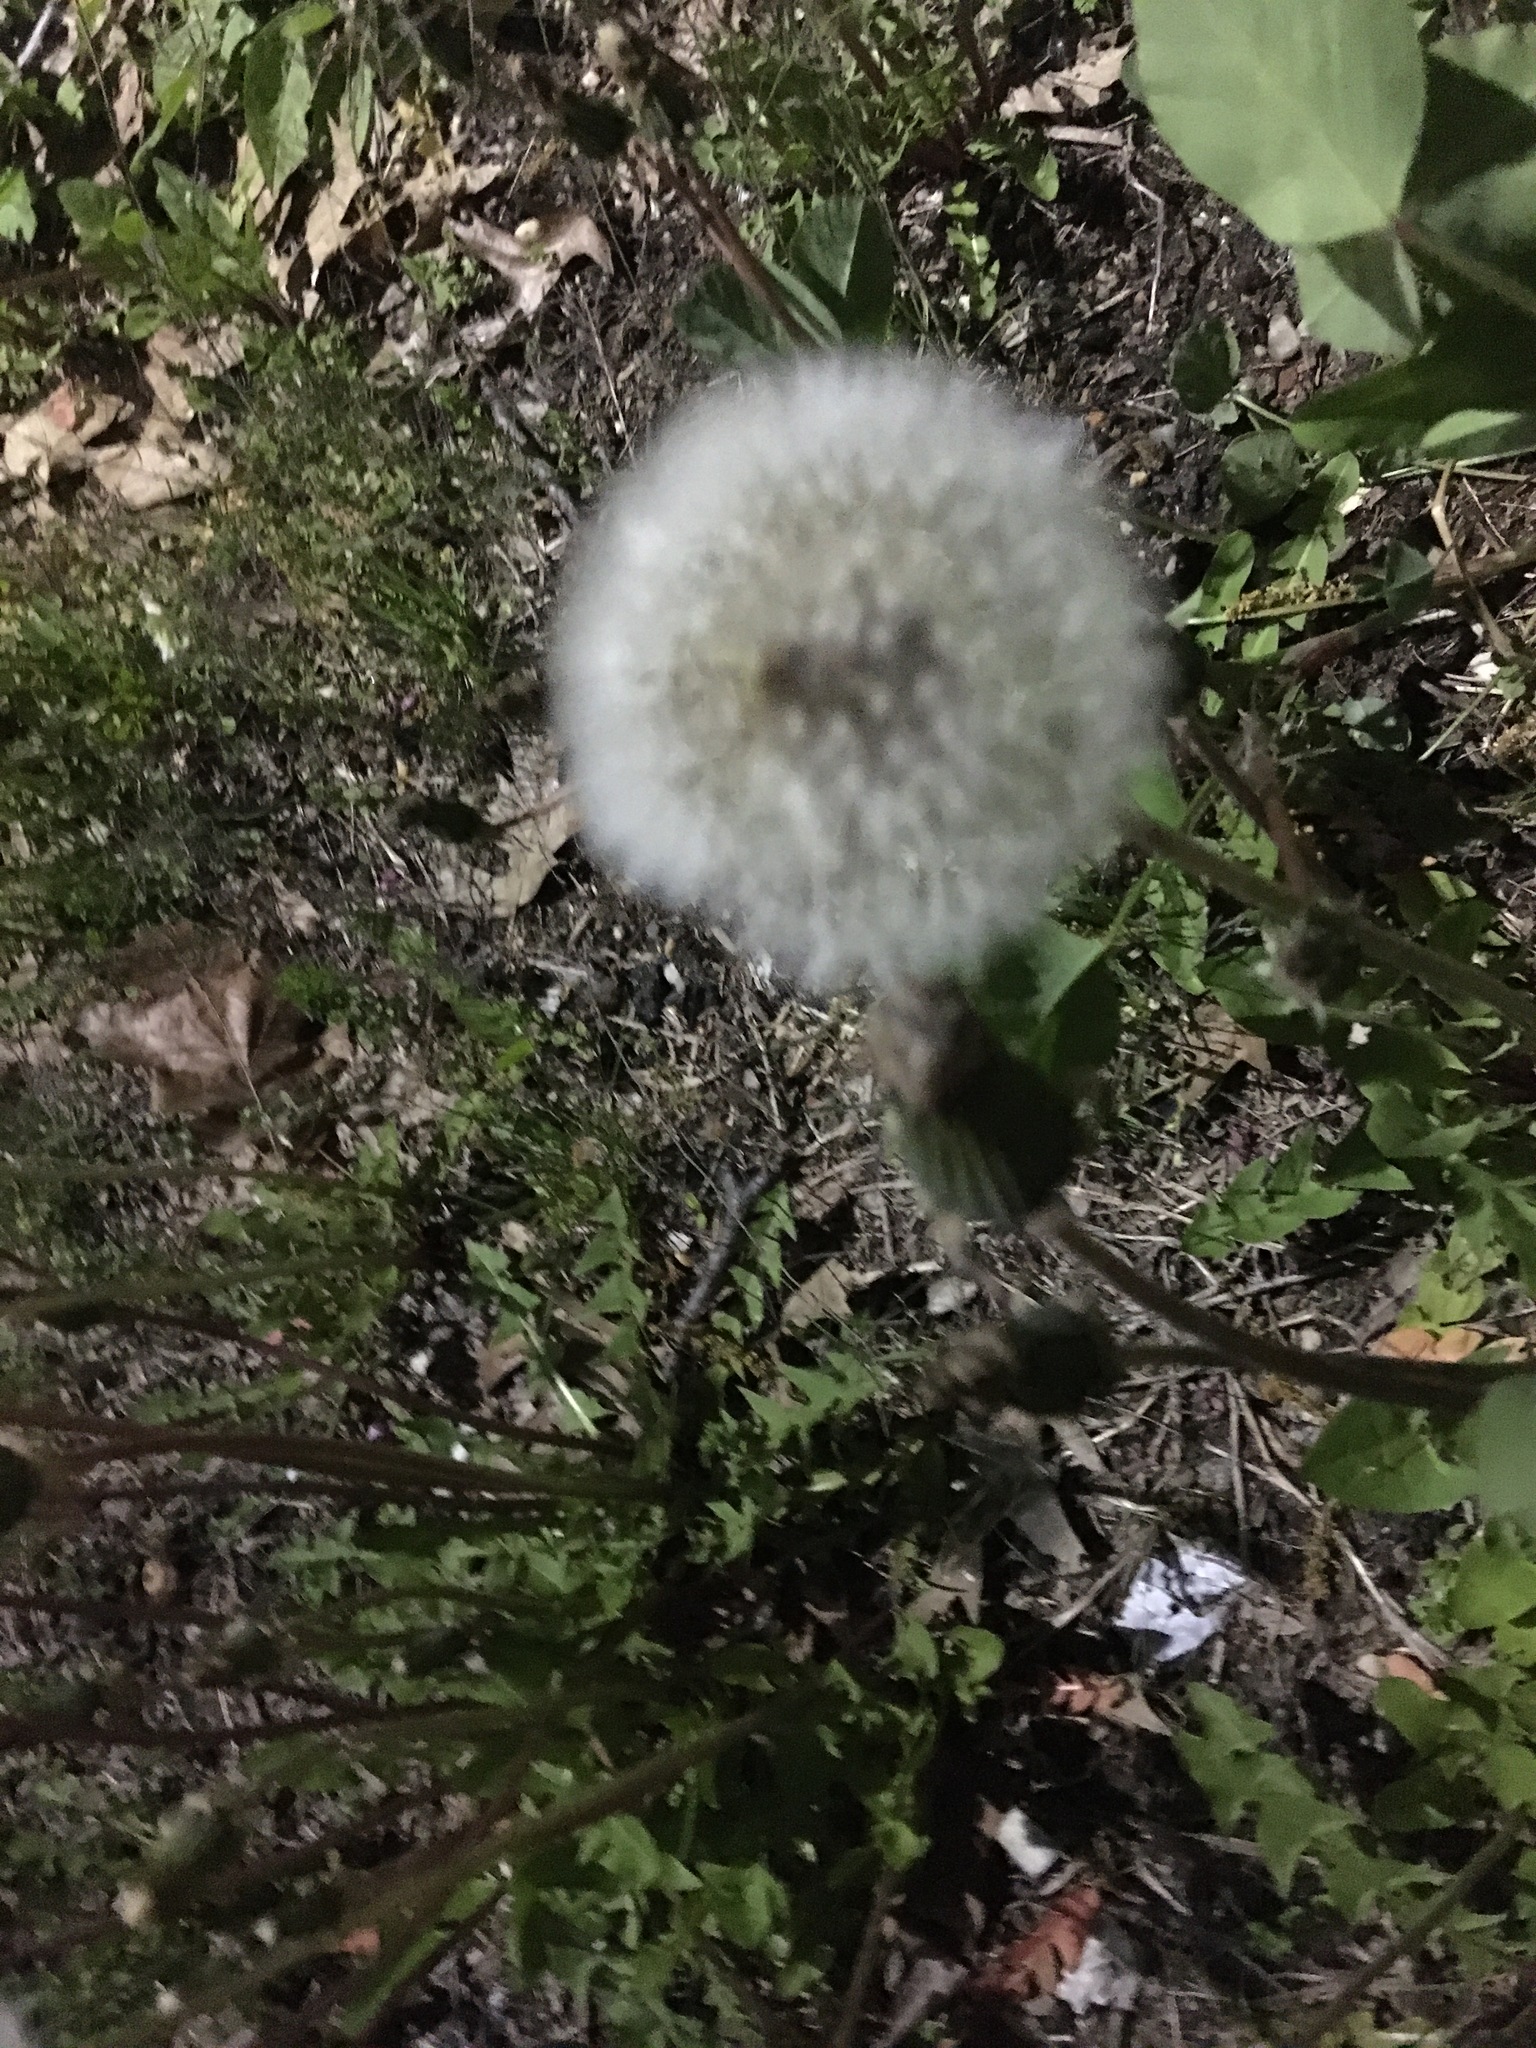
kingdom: Plantae
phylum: Tracheophyta
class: Magnoliopsida
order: Asterales
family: Asteraceae
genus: Taraxacum
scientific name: Taraxacum officinale
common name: Common dandelion
